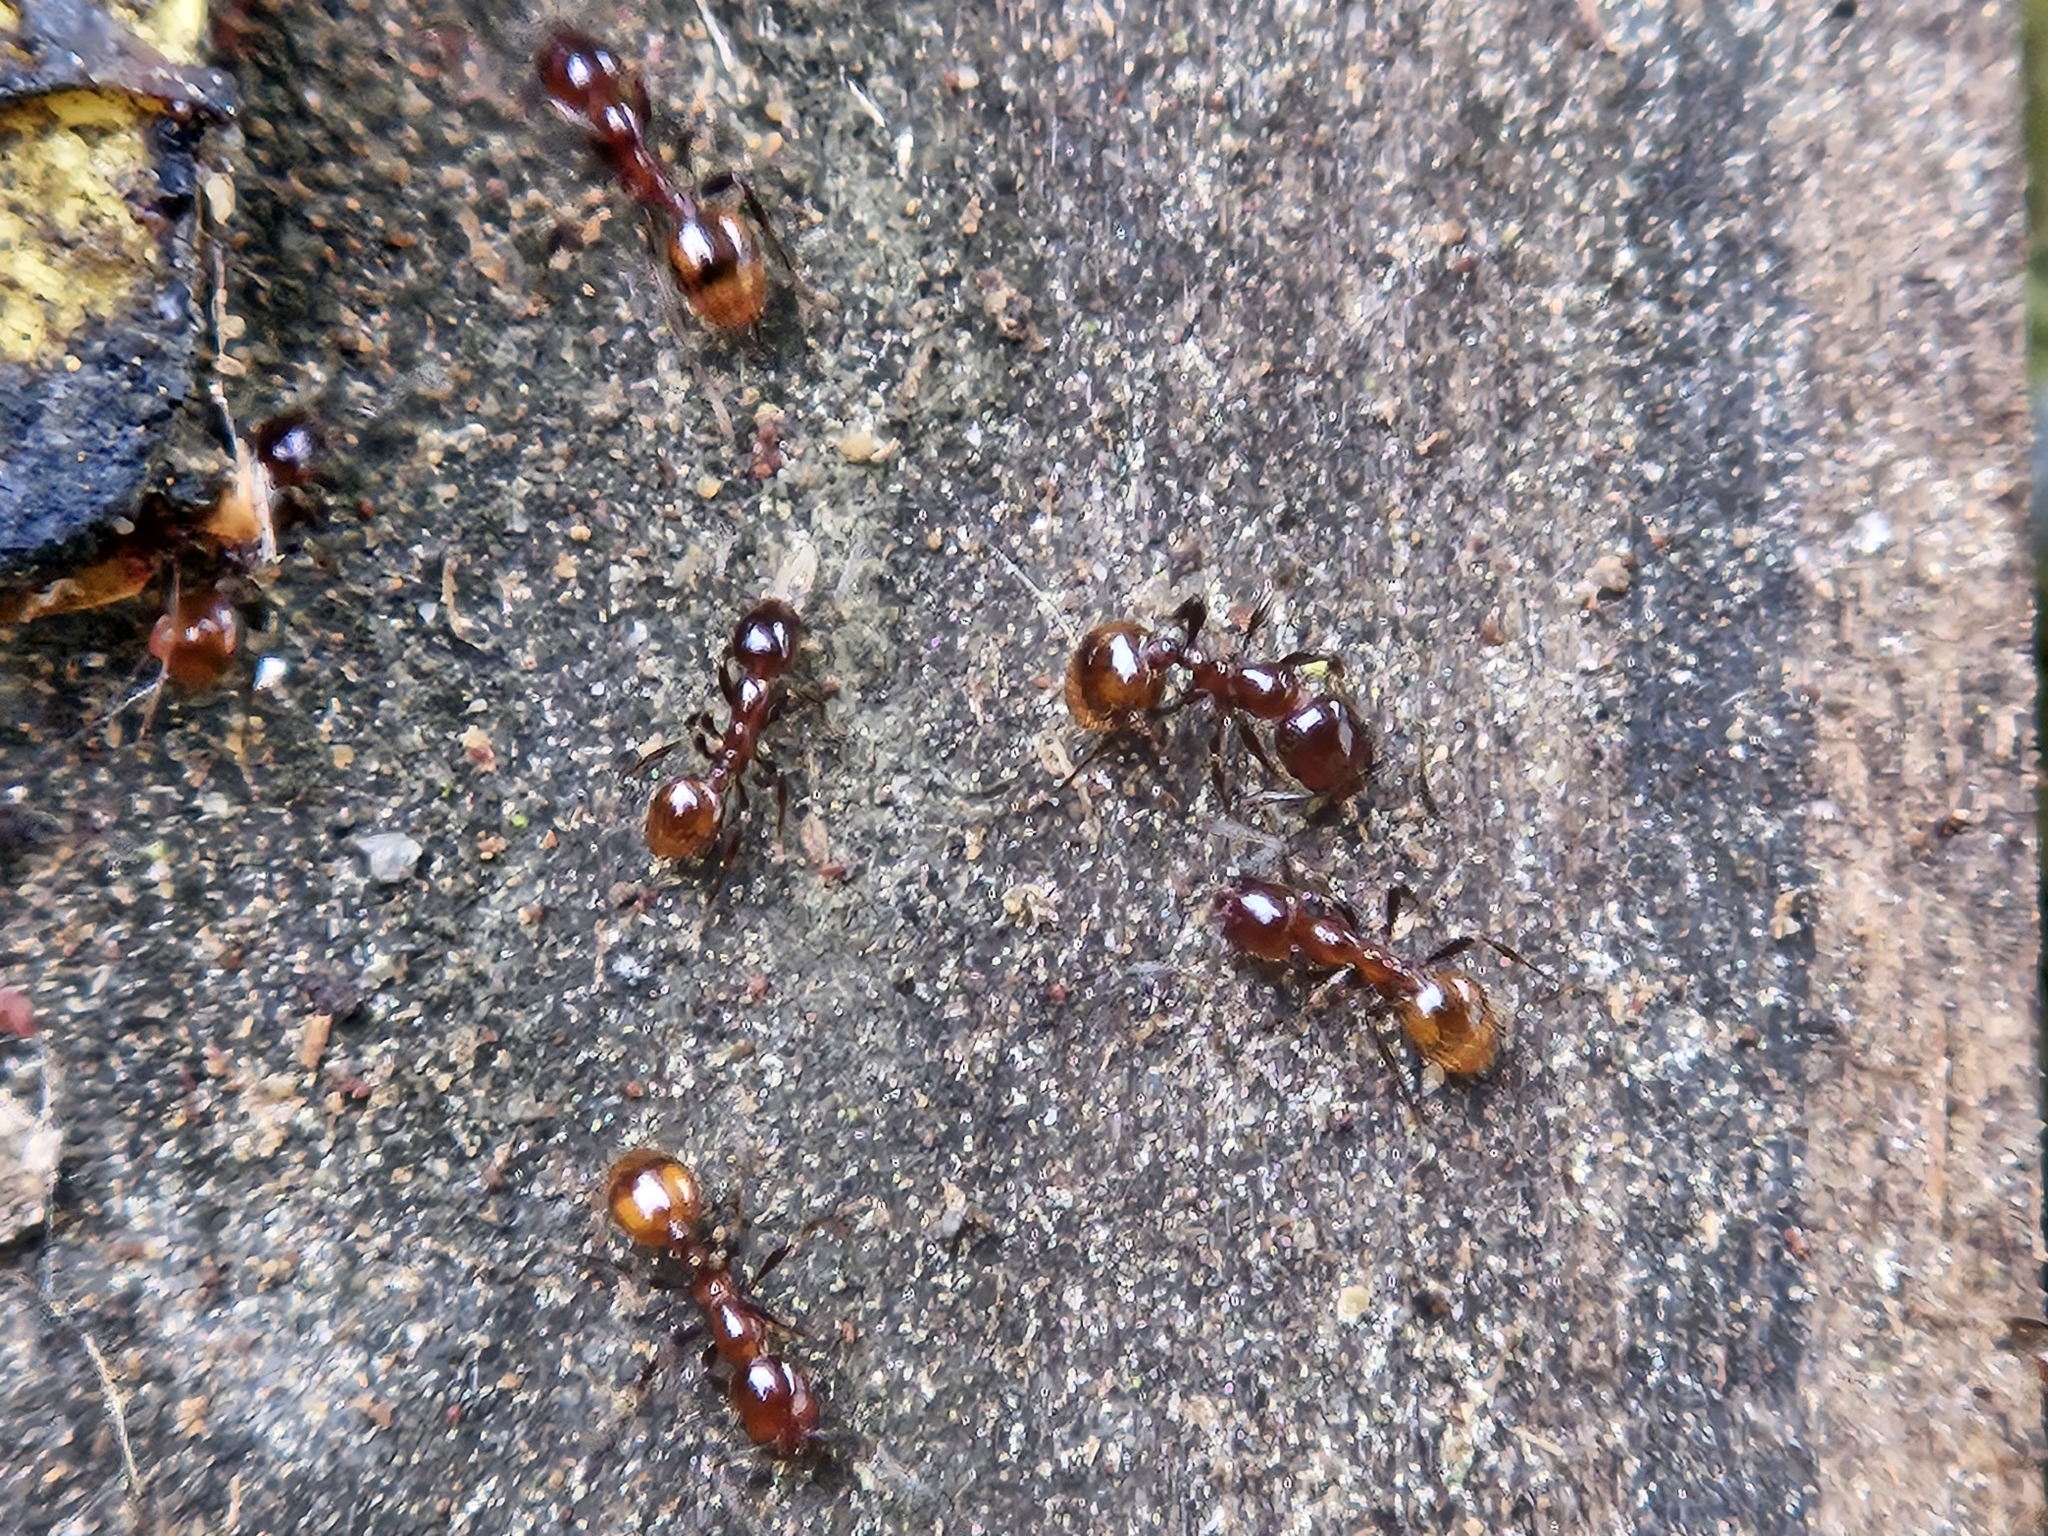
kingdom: Animalia
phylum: Arthropoda
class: Insecta
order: Hymenoptera
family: Formicidae
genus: Monomorium
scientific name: Monomorium antarcticum
